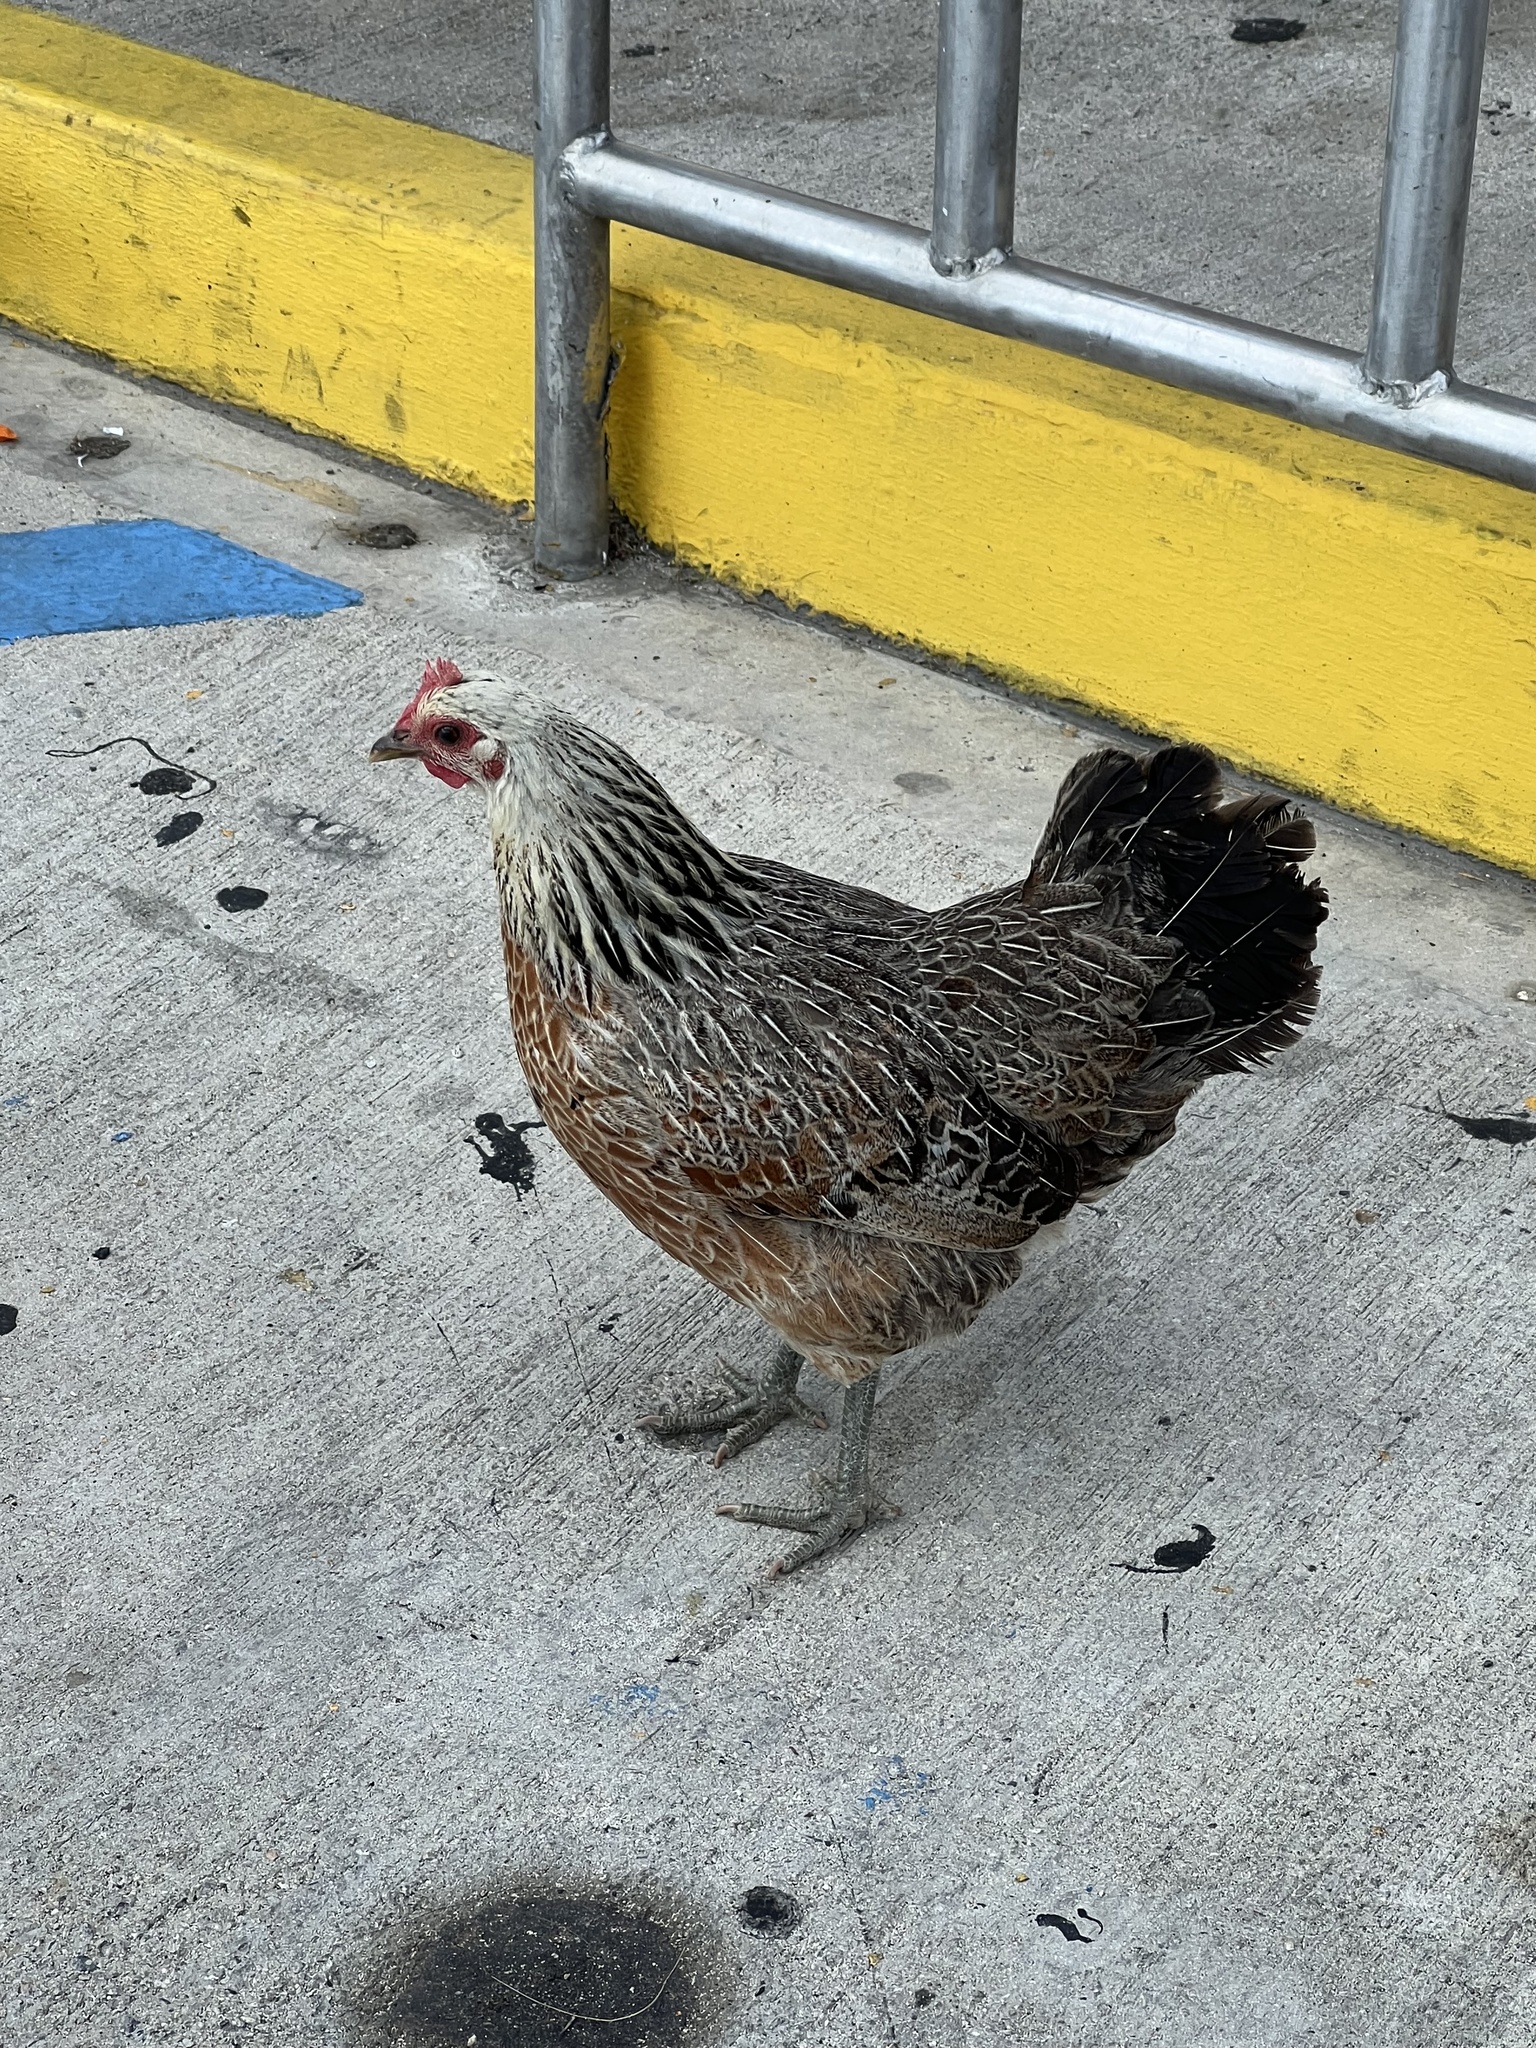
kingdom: Animalia
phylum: Chordata
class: Aves
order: Galliformes
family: Phasianidae
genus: Gallus
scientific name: Gallus gallus
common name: Red junglefowl
